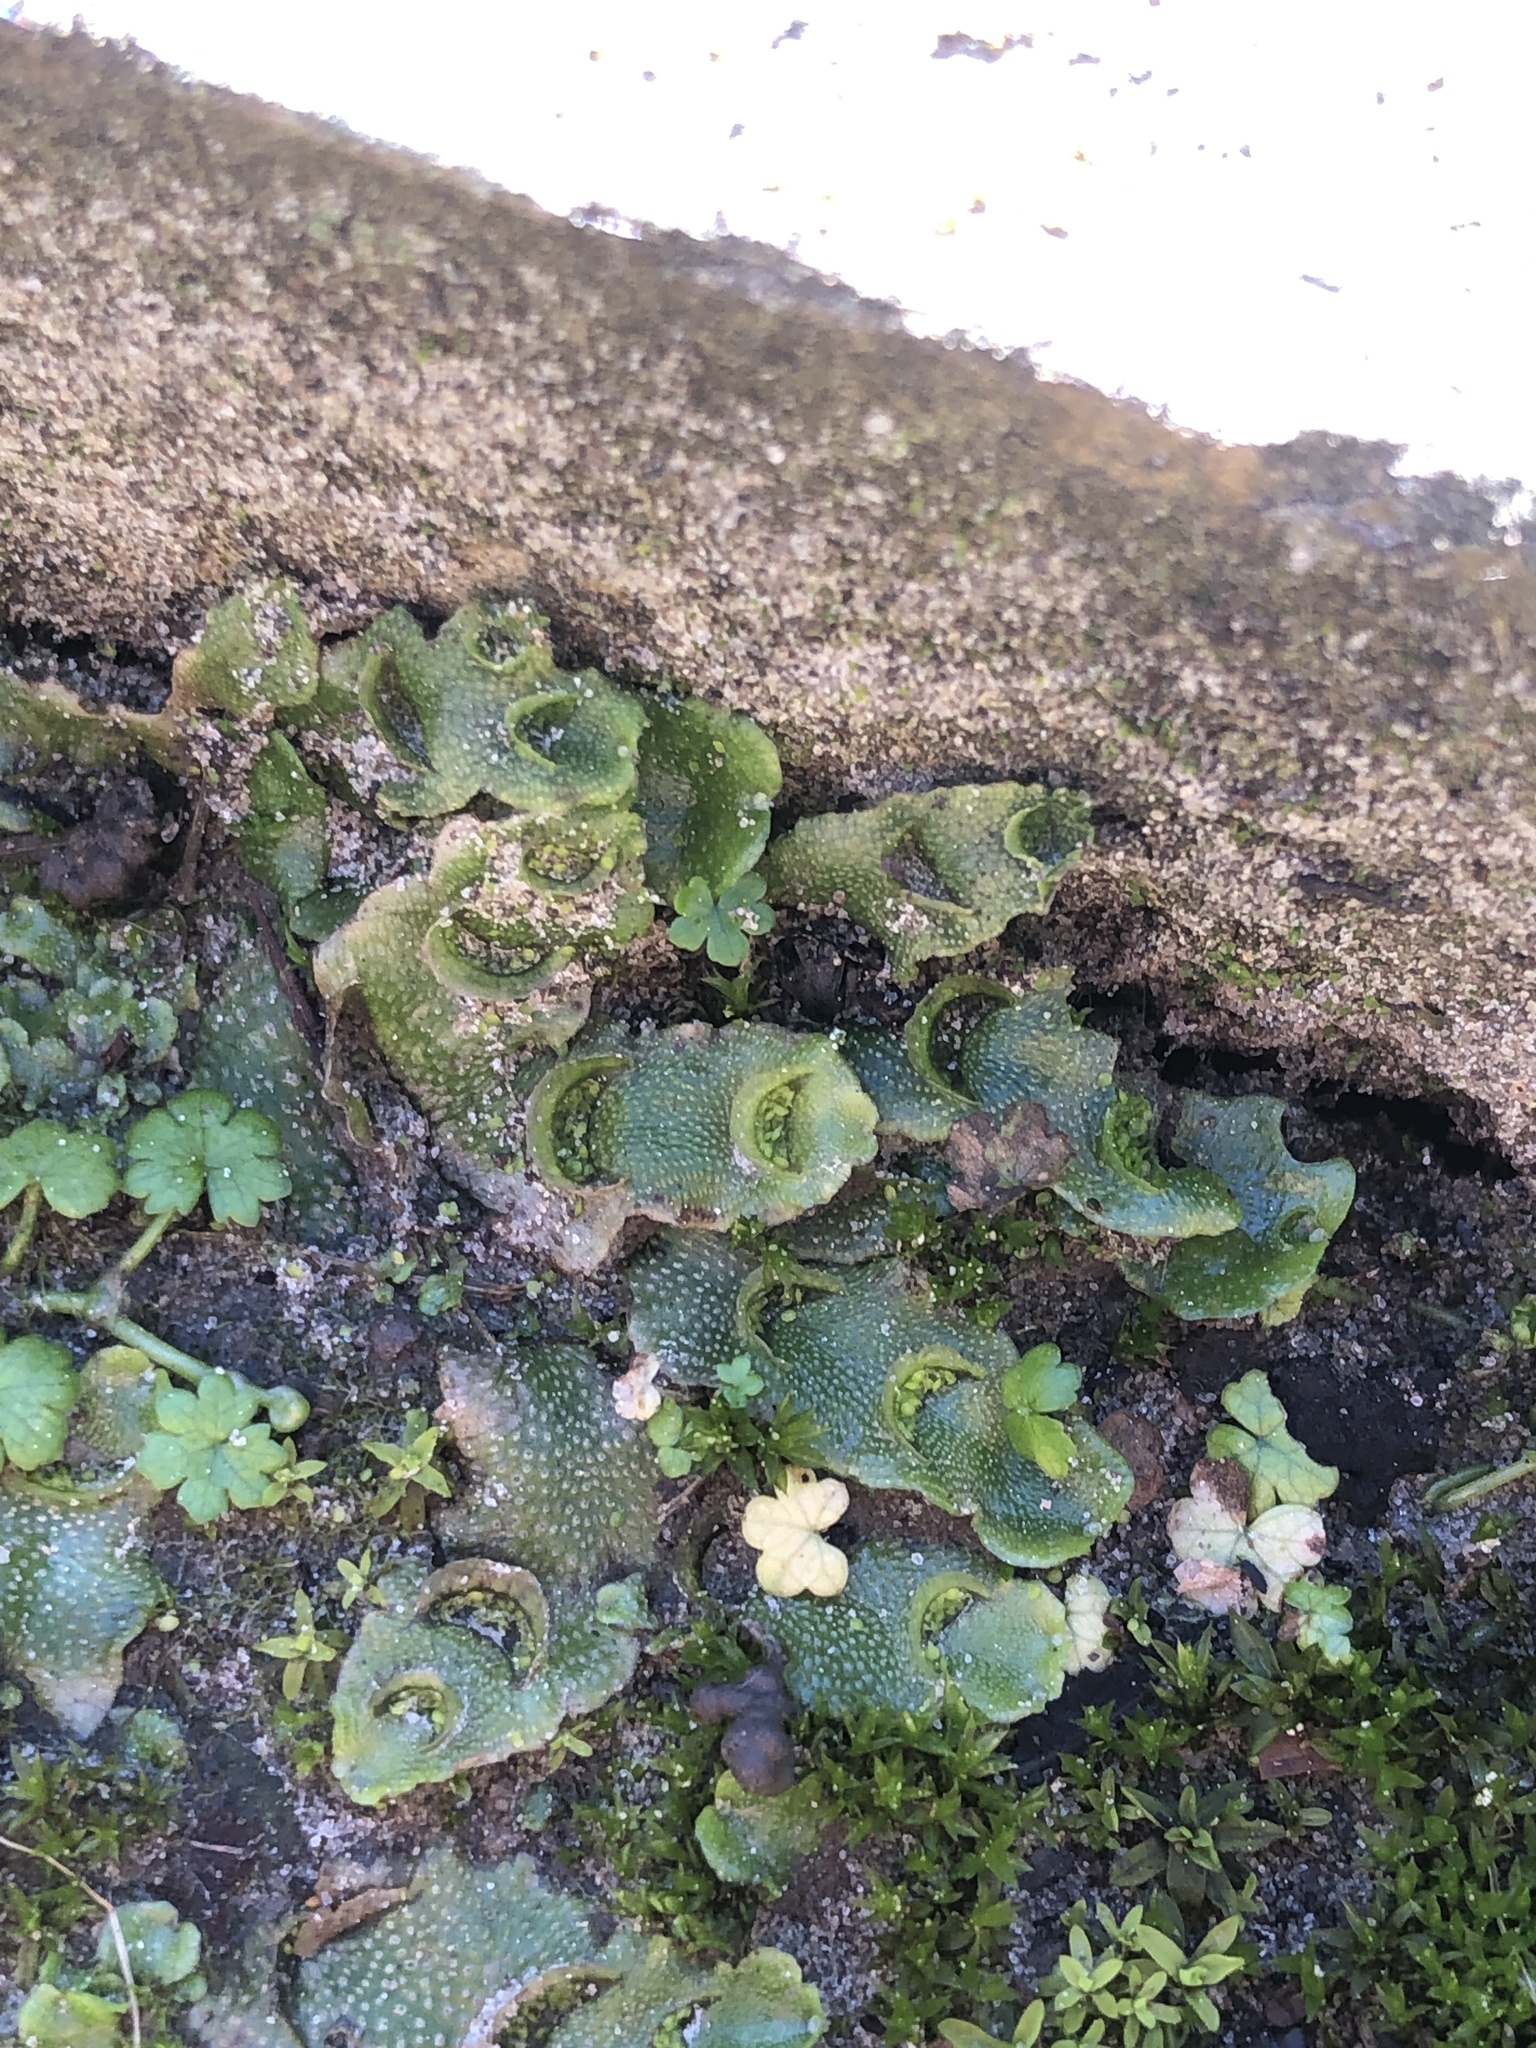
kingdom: Plantae
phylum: Marchantiophyta
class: Marchantiopsida
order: Lunulariales
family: Lunulariaceae
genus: Lunularia
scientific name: Lunularia cruciata
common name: Crescent-cup liverwort
